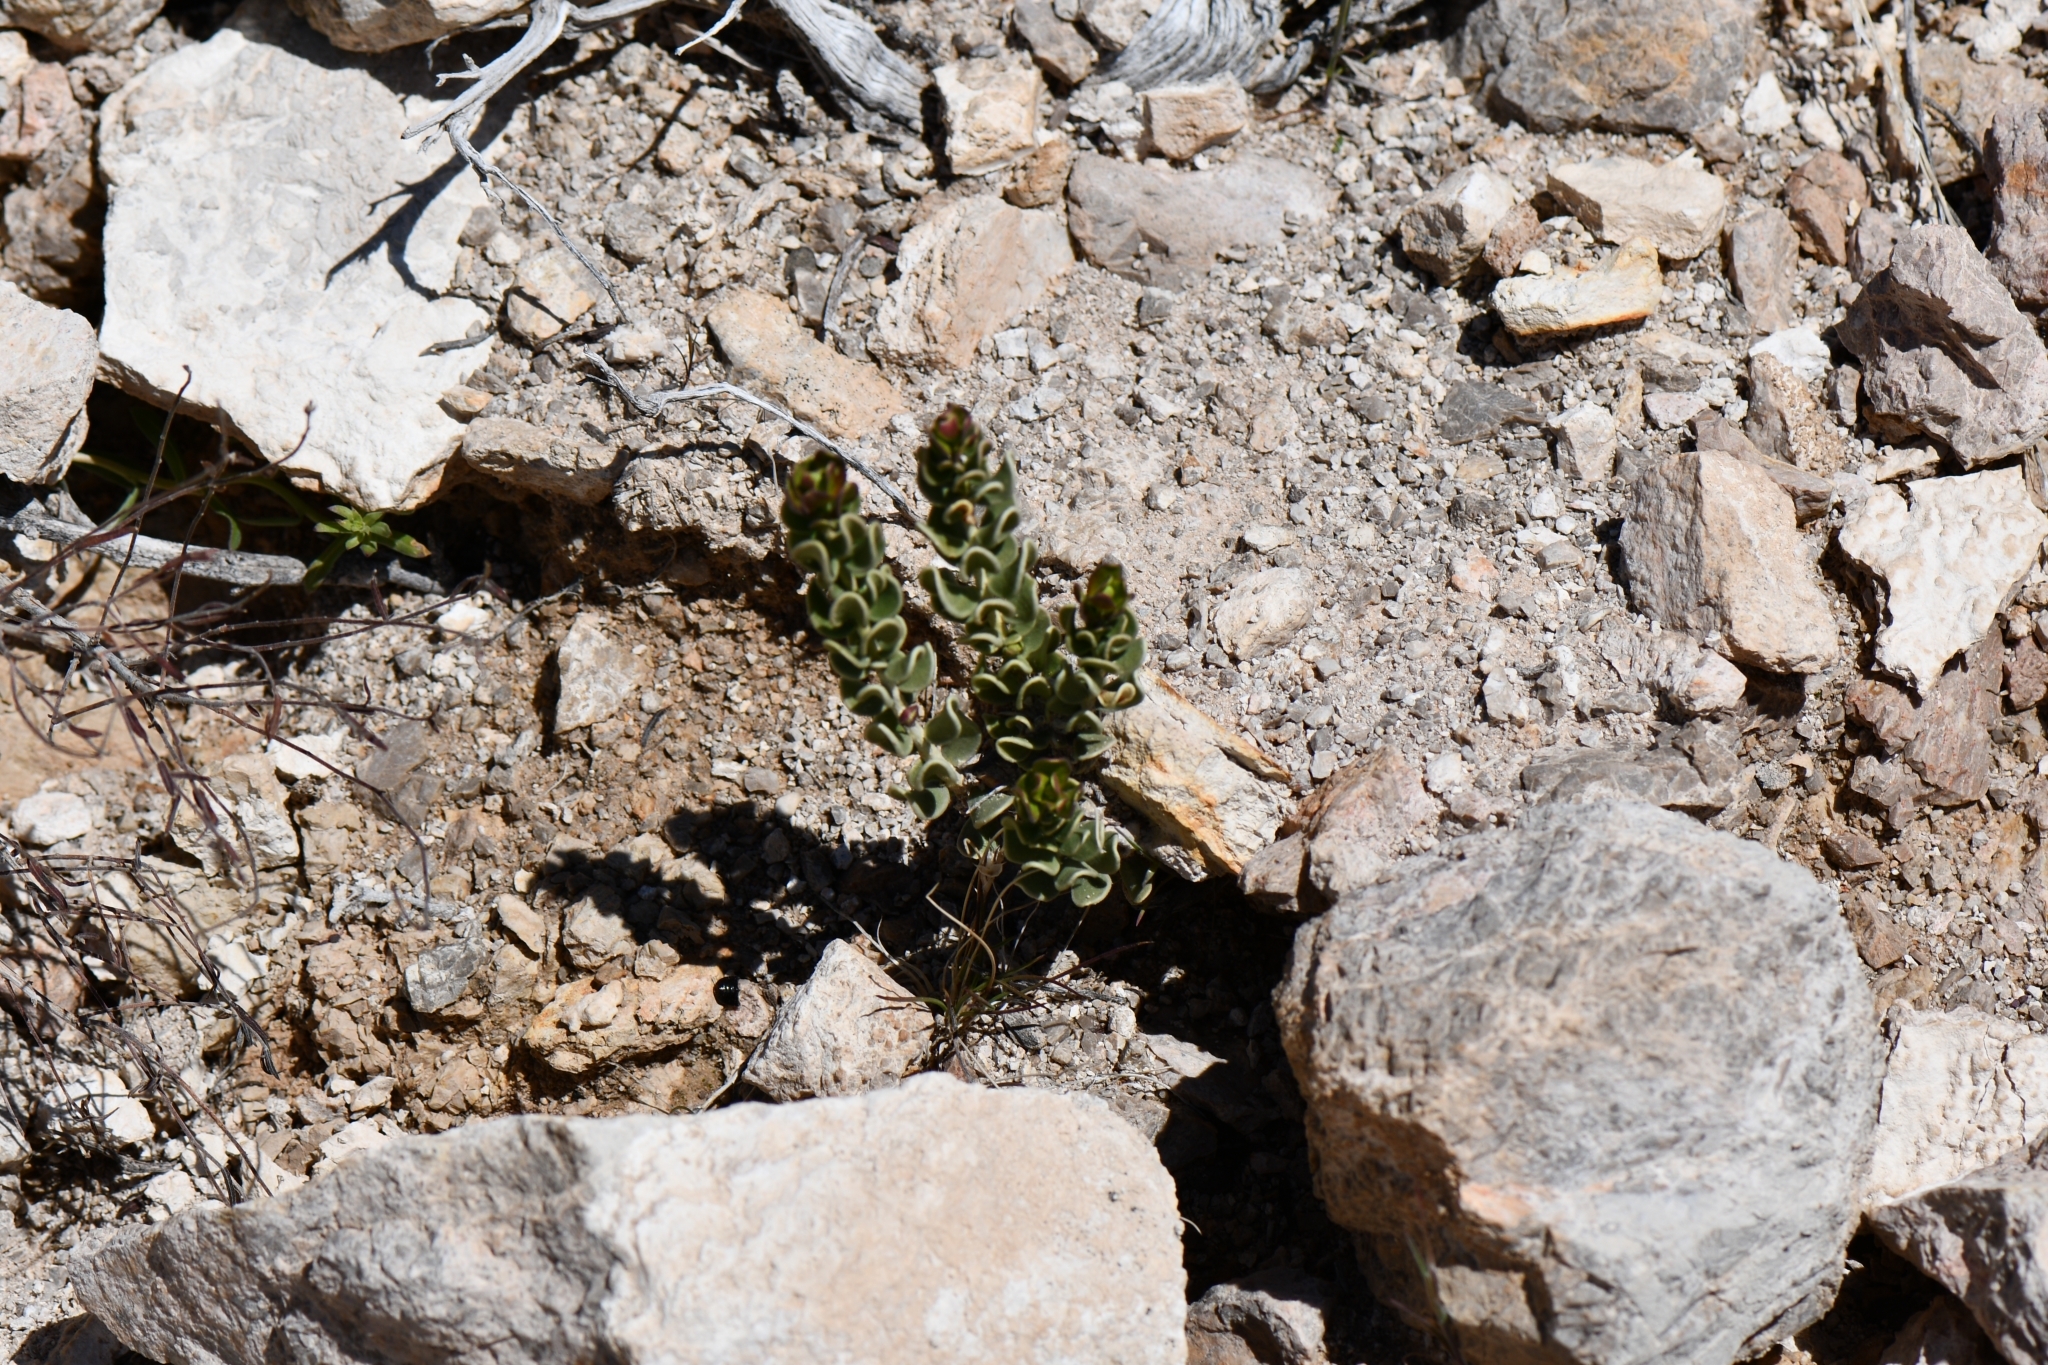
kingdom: Plantae
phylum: Tracheophyta
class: Magnoliopsida
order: Celastrales
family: Celastraceae
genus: Mortonia
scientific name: Mortonia utahensis
